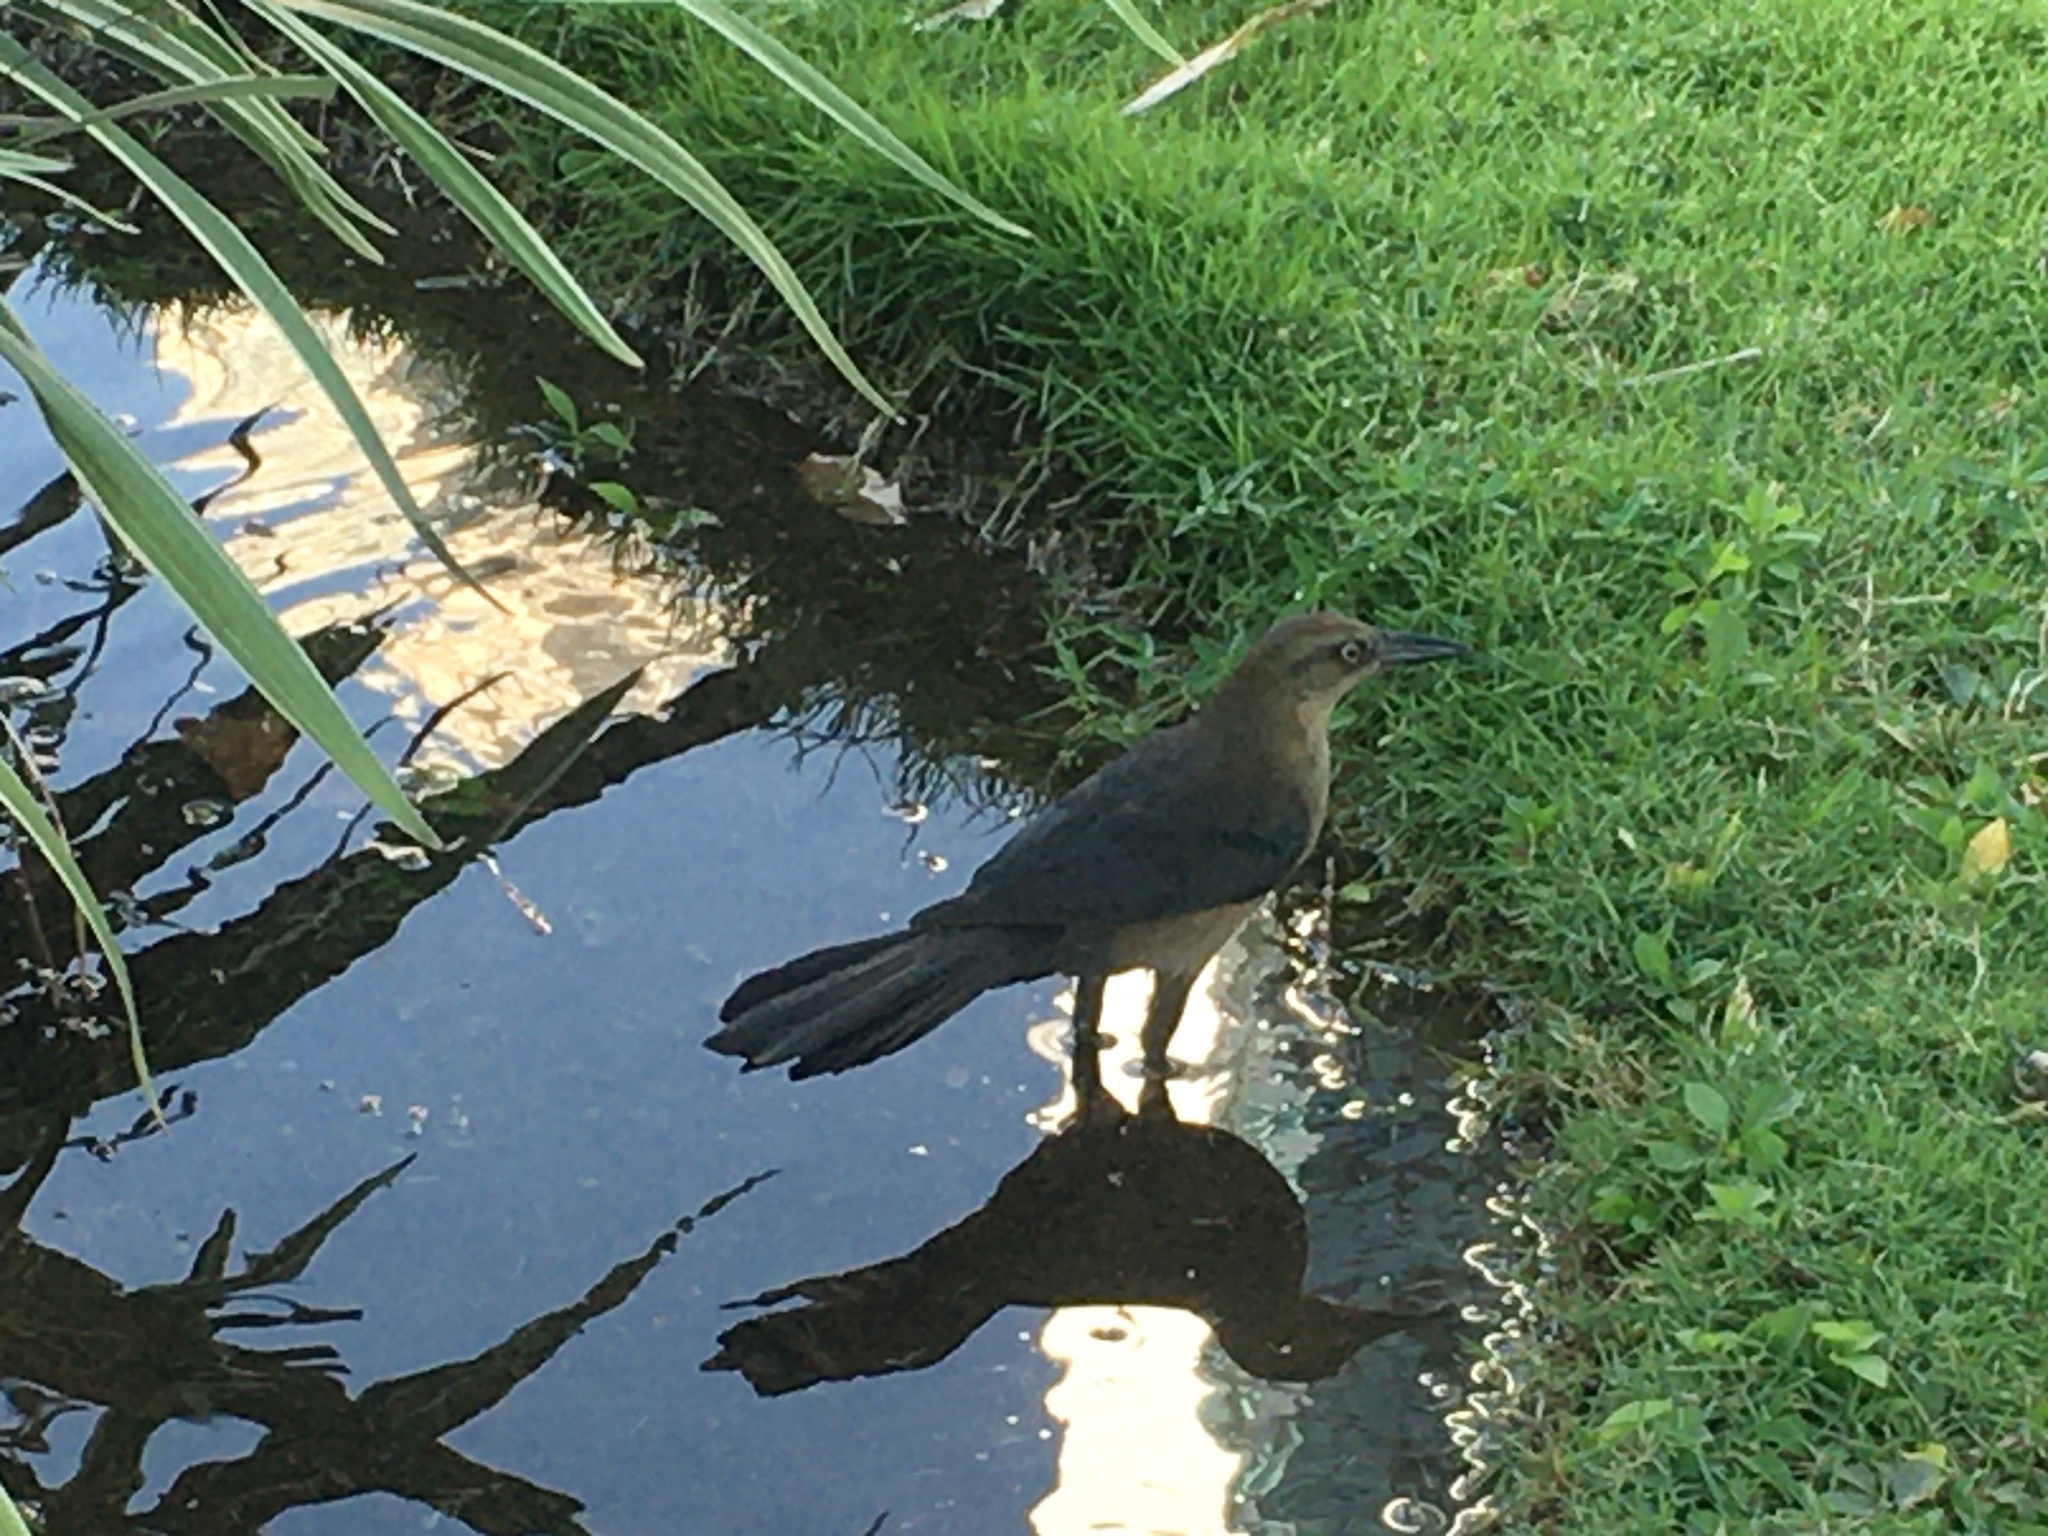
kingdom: Animalia
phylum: Chordata
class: Aves
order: Passeriformes
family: Icteridae
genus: Quiscalus
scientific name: Quiscalus mexicanus
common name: Great-tailed grackle
